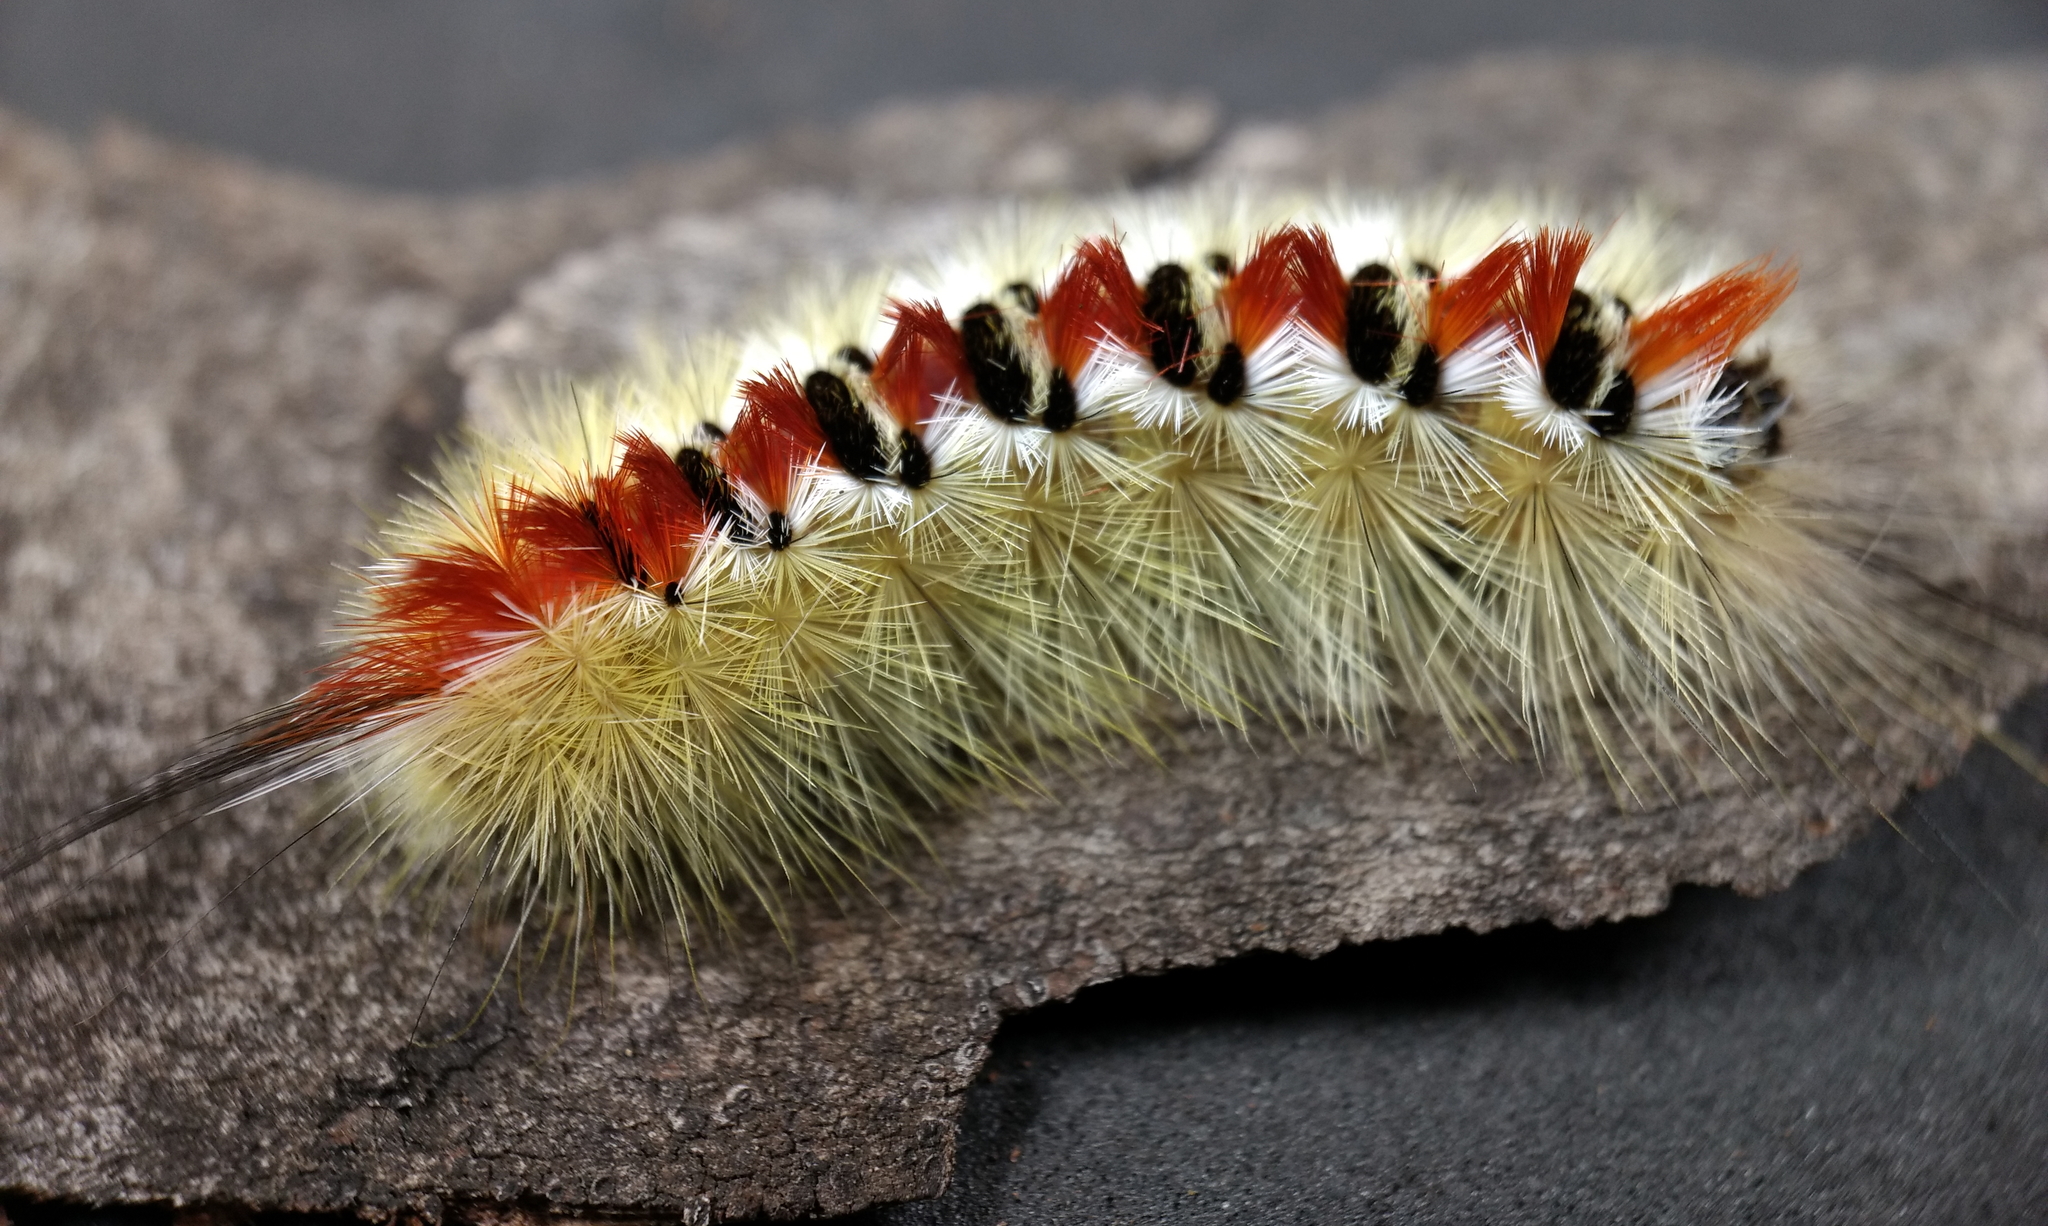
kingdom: Animalia
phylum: Arthropoda
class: Insecta
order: Lepidoptera
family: Notodontidae
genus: Trichiocercus
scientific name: Trichiocercus sparshalli
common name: Long-tailed satin
